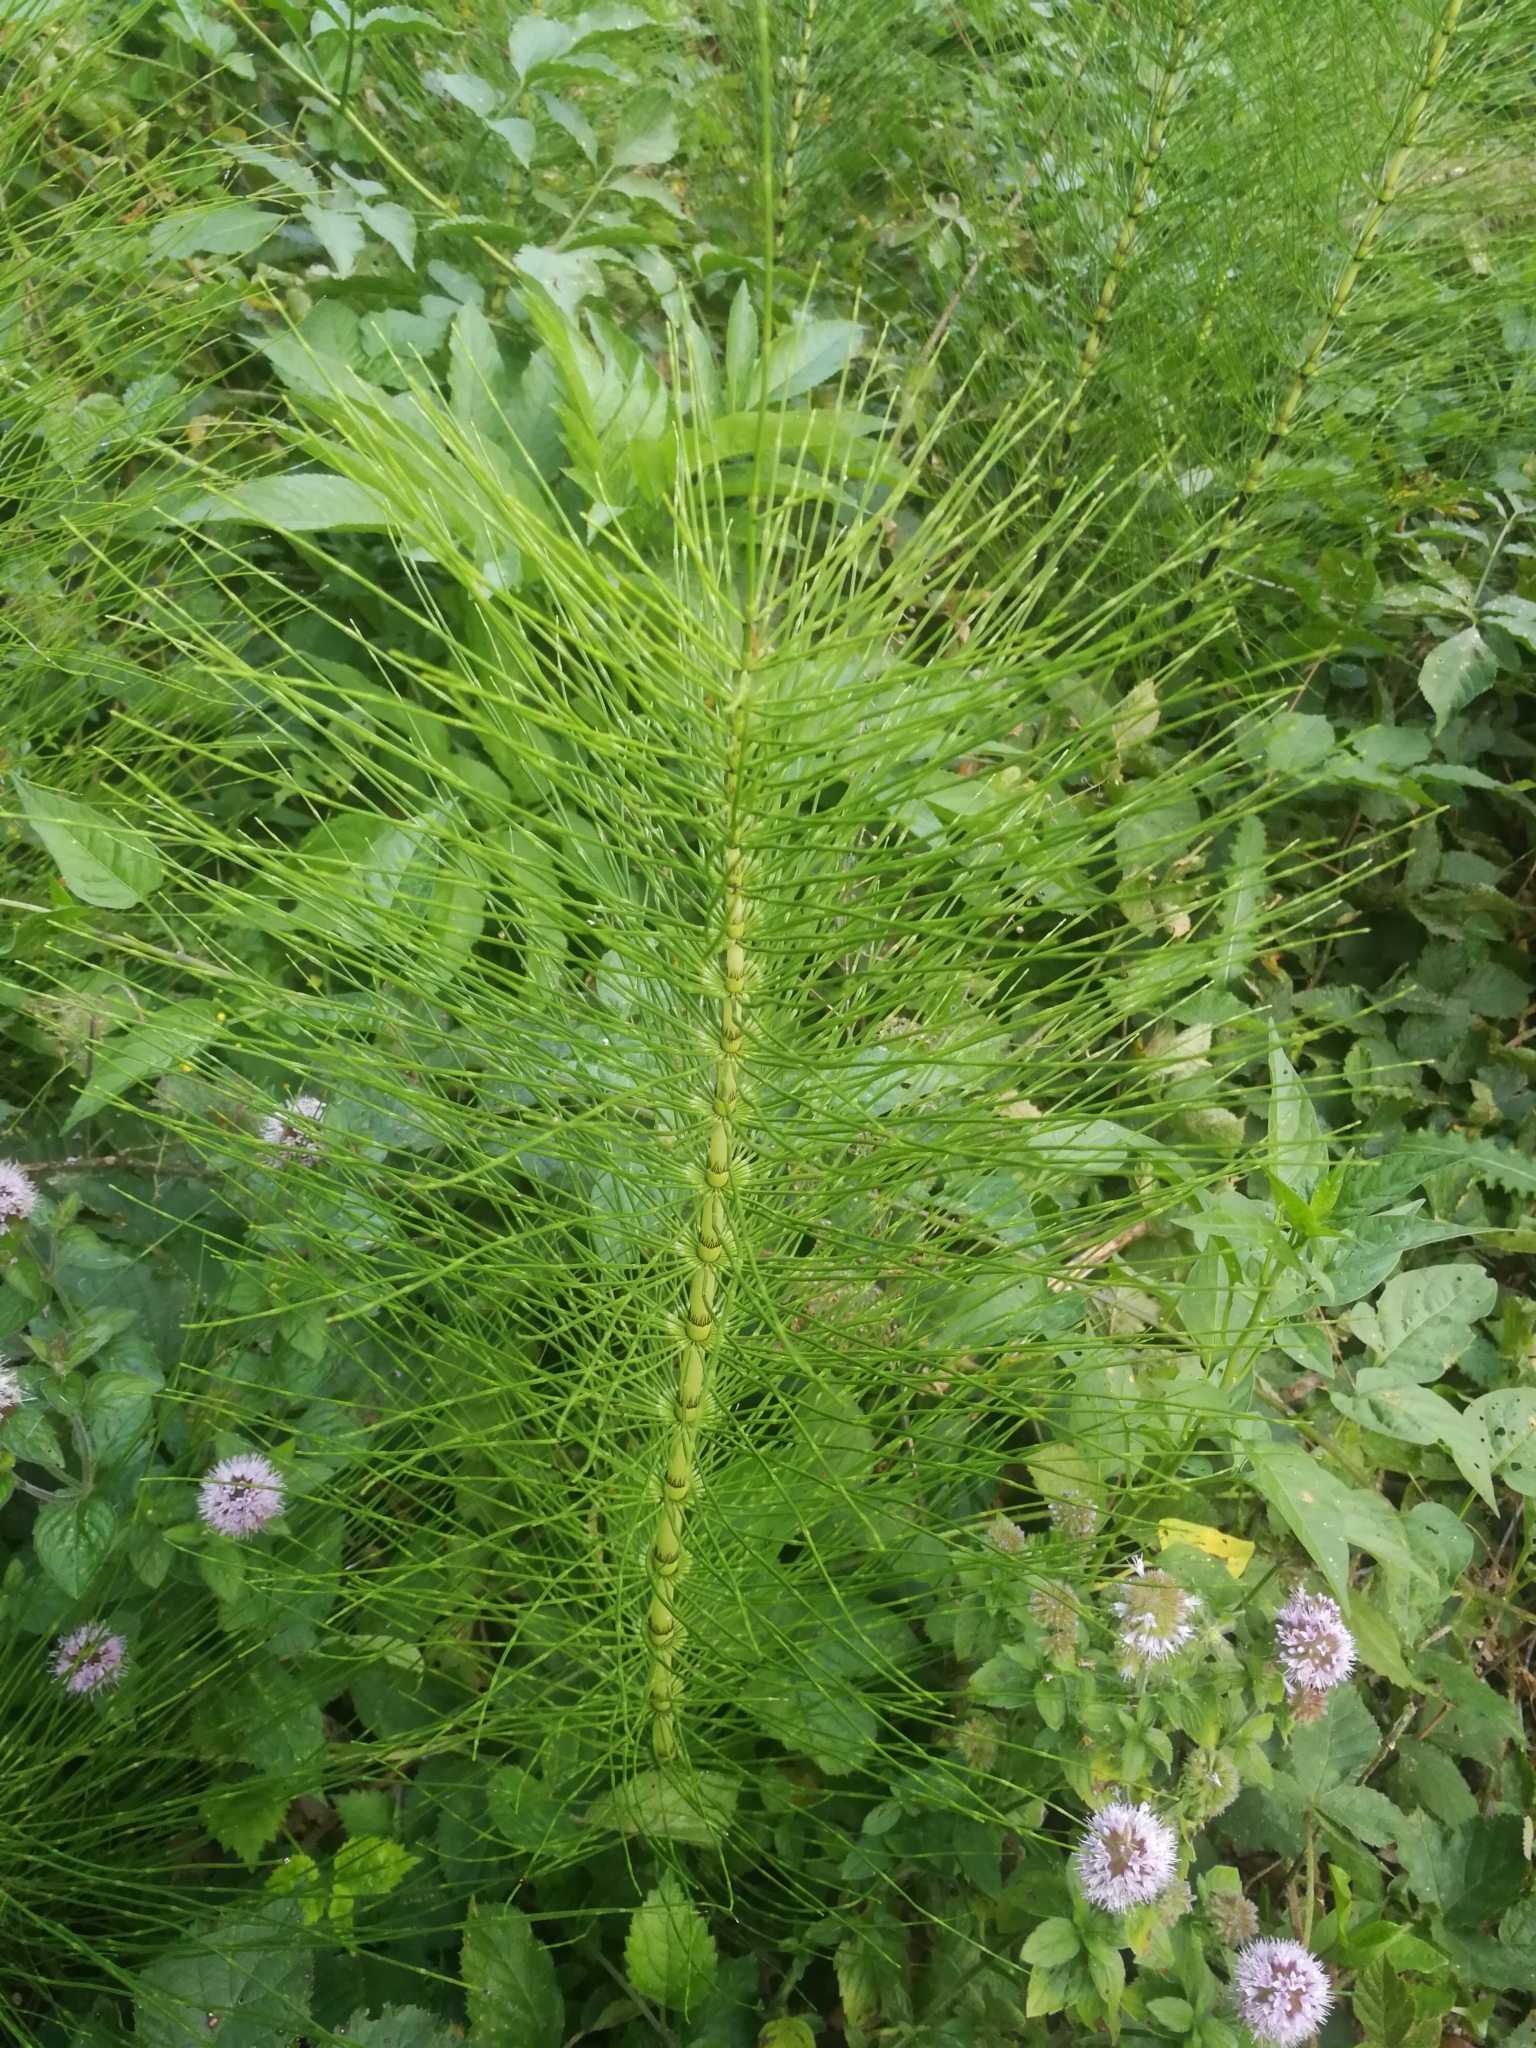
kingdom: Plantae
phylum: Tracheophyta
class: Polypodiopsida
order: Equisetales
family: Equisetaceae
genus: Equisetum
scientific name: Equisetum telmateia
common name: Great horsetail
